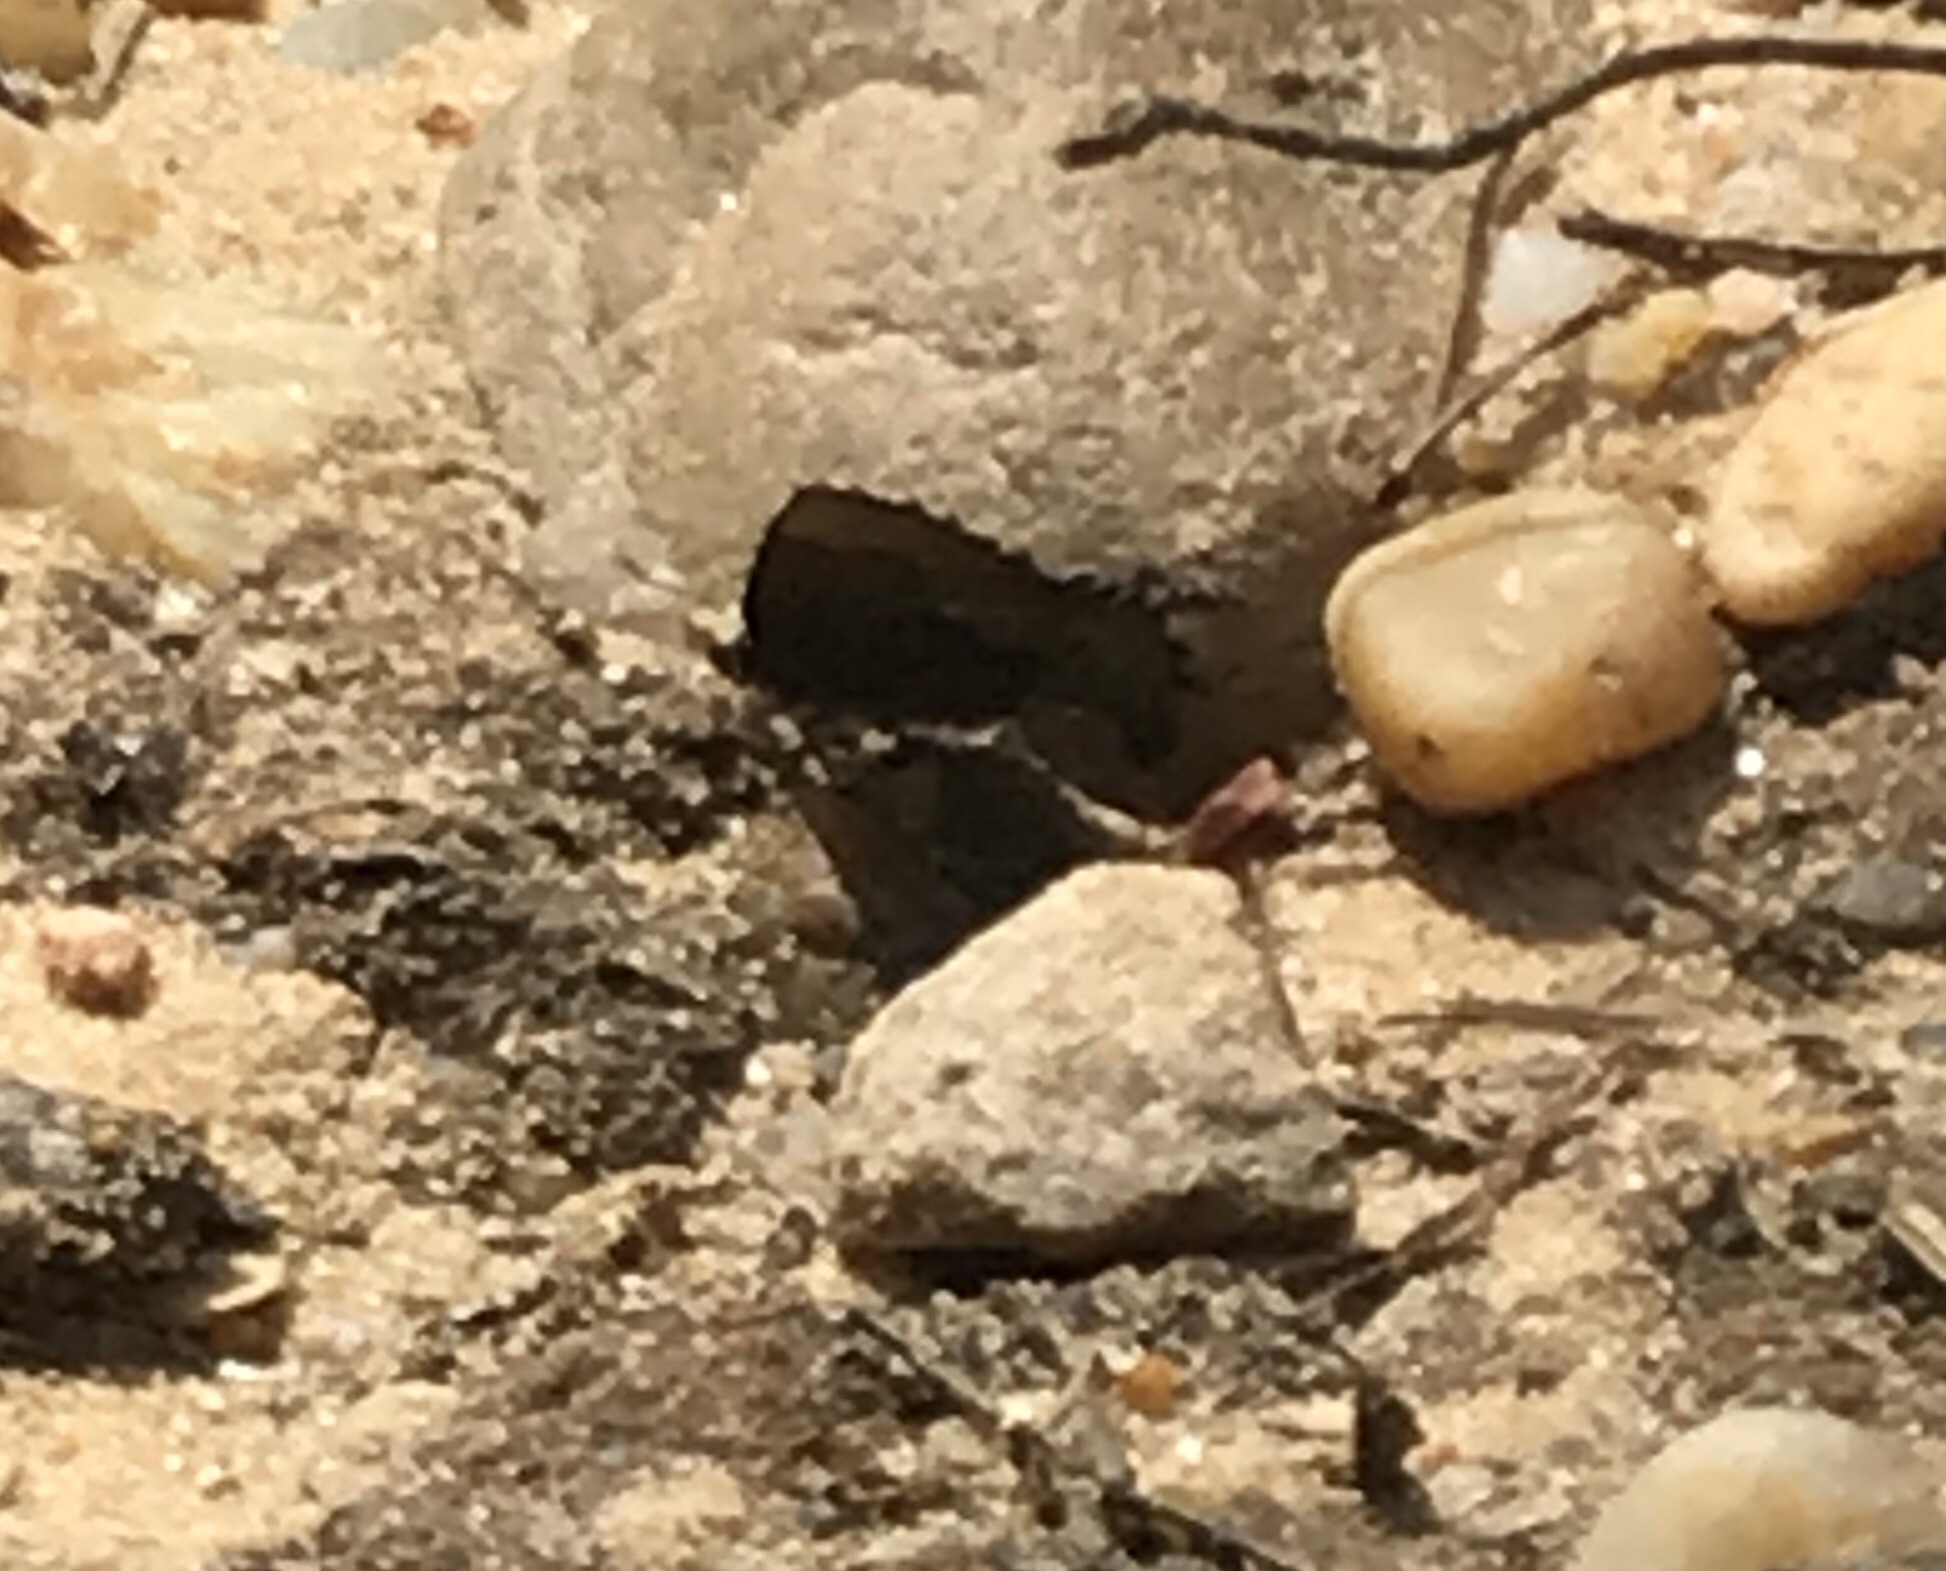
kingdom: Animalia
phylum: Arthropoda
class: Insecta
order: Lepidoptera
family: Lycaenidae
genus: Incisalia
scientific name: Incisalia henrici
